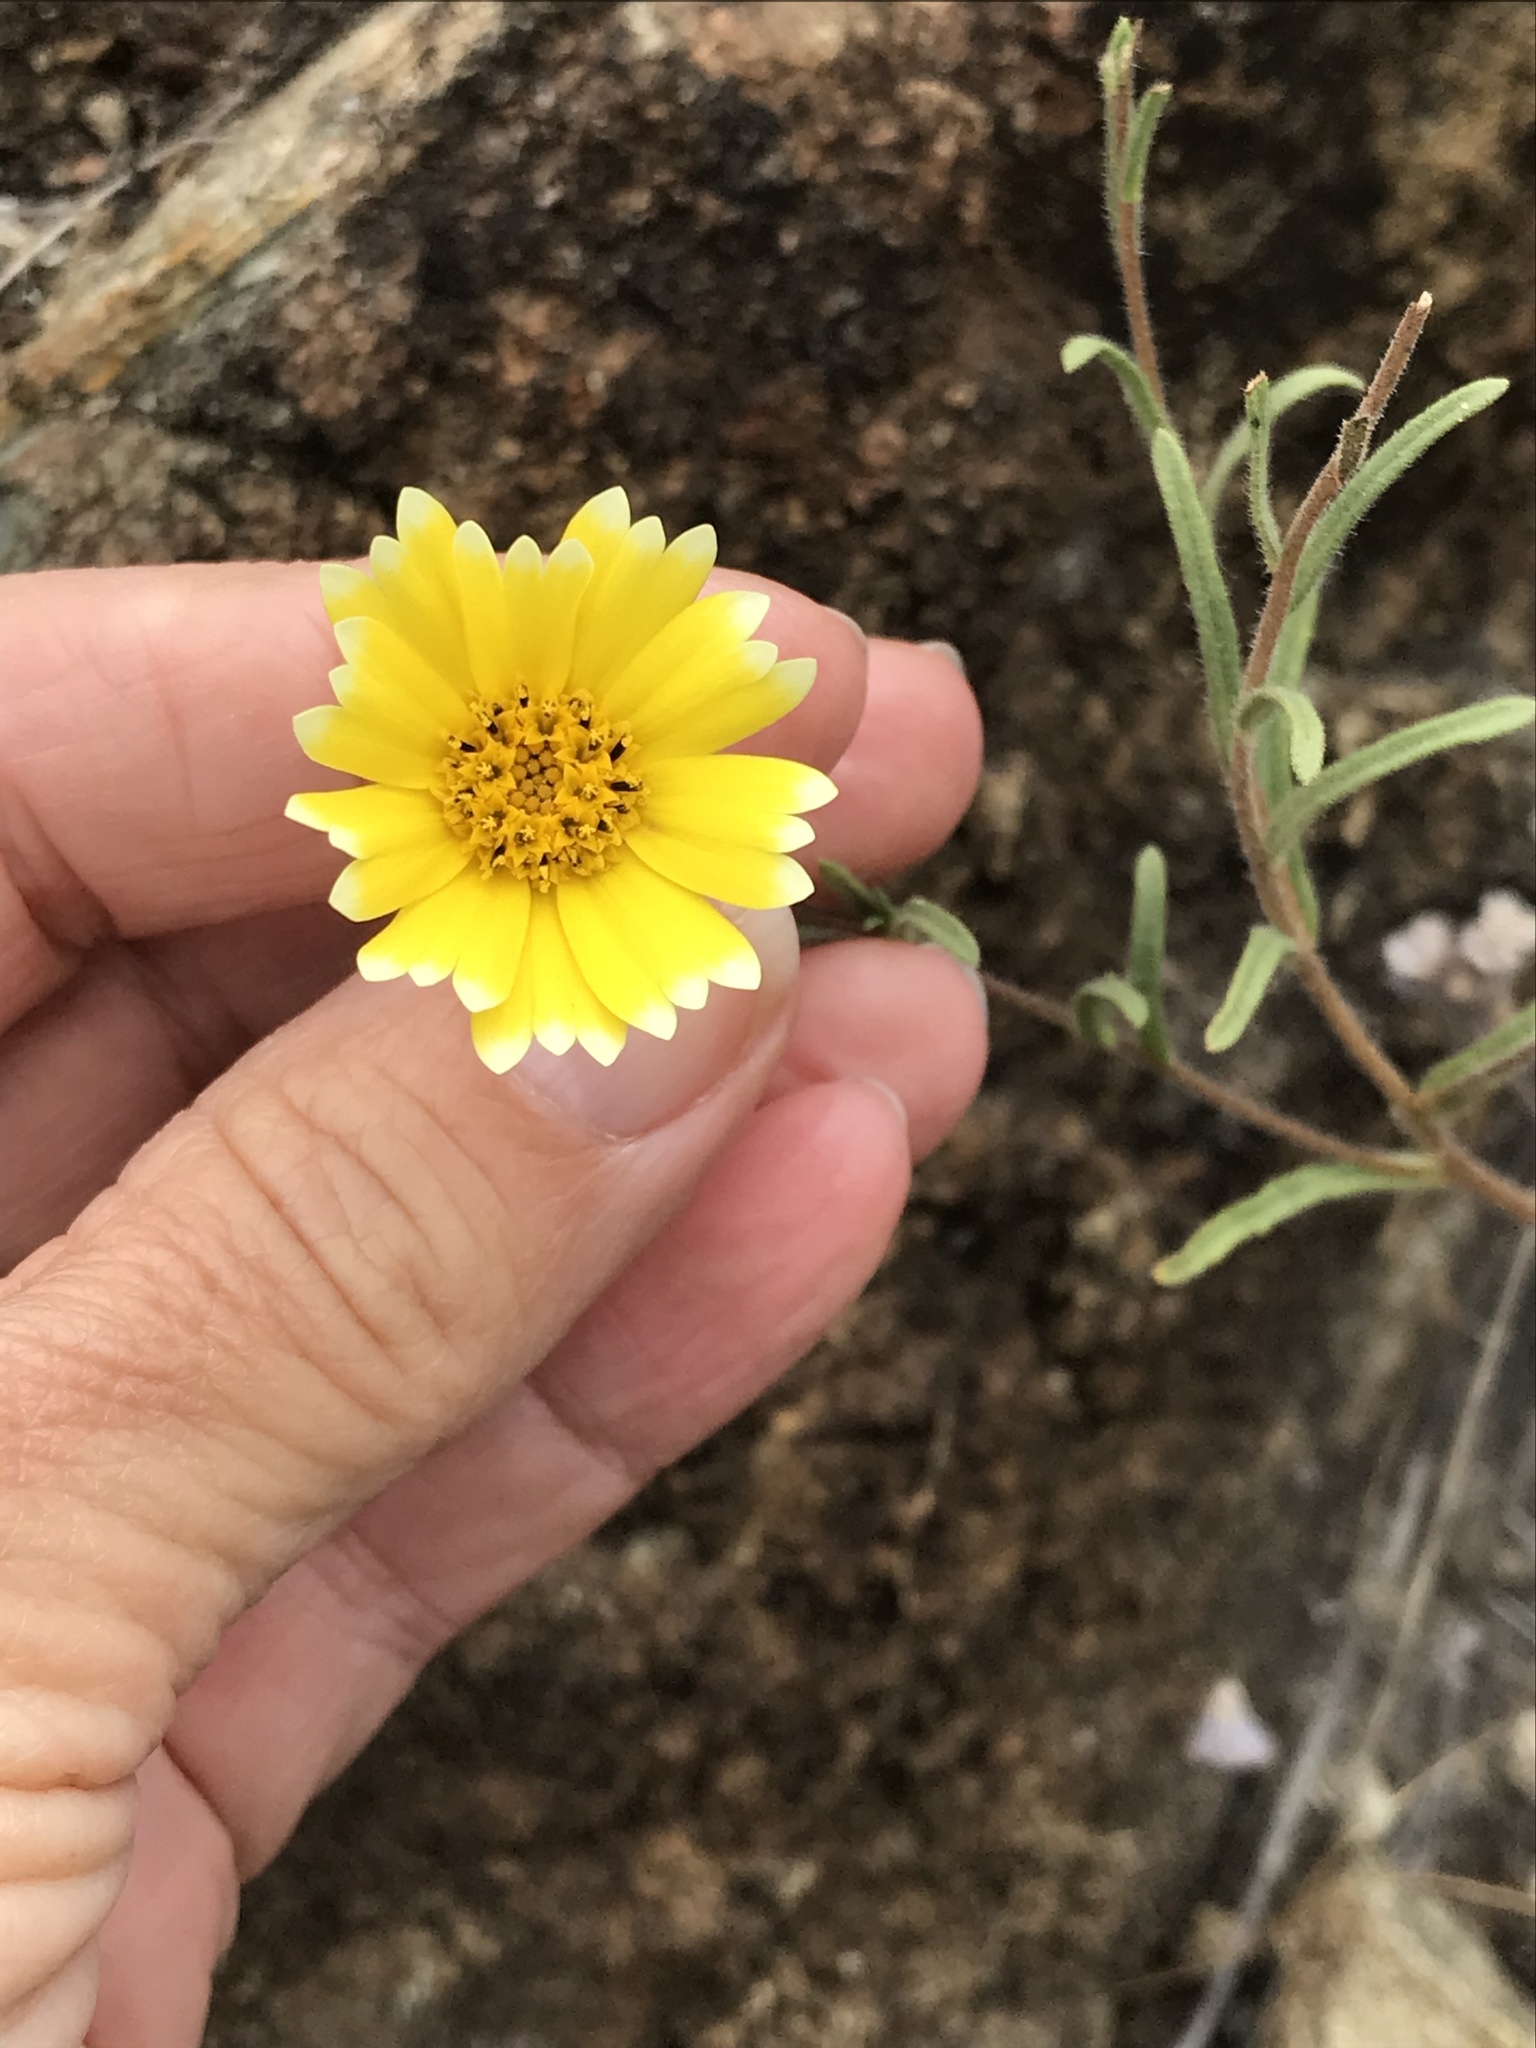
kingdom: Plantae
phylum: Tracheophyta
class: Magnoliopsida
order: Asterales
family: Asteraceae
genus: Layia
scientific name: Layia platyglossa
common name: Tidy-tips
